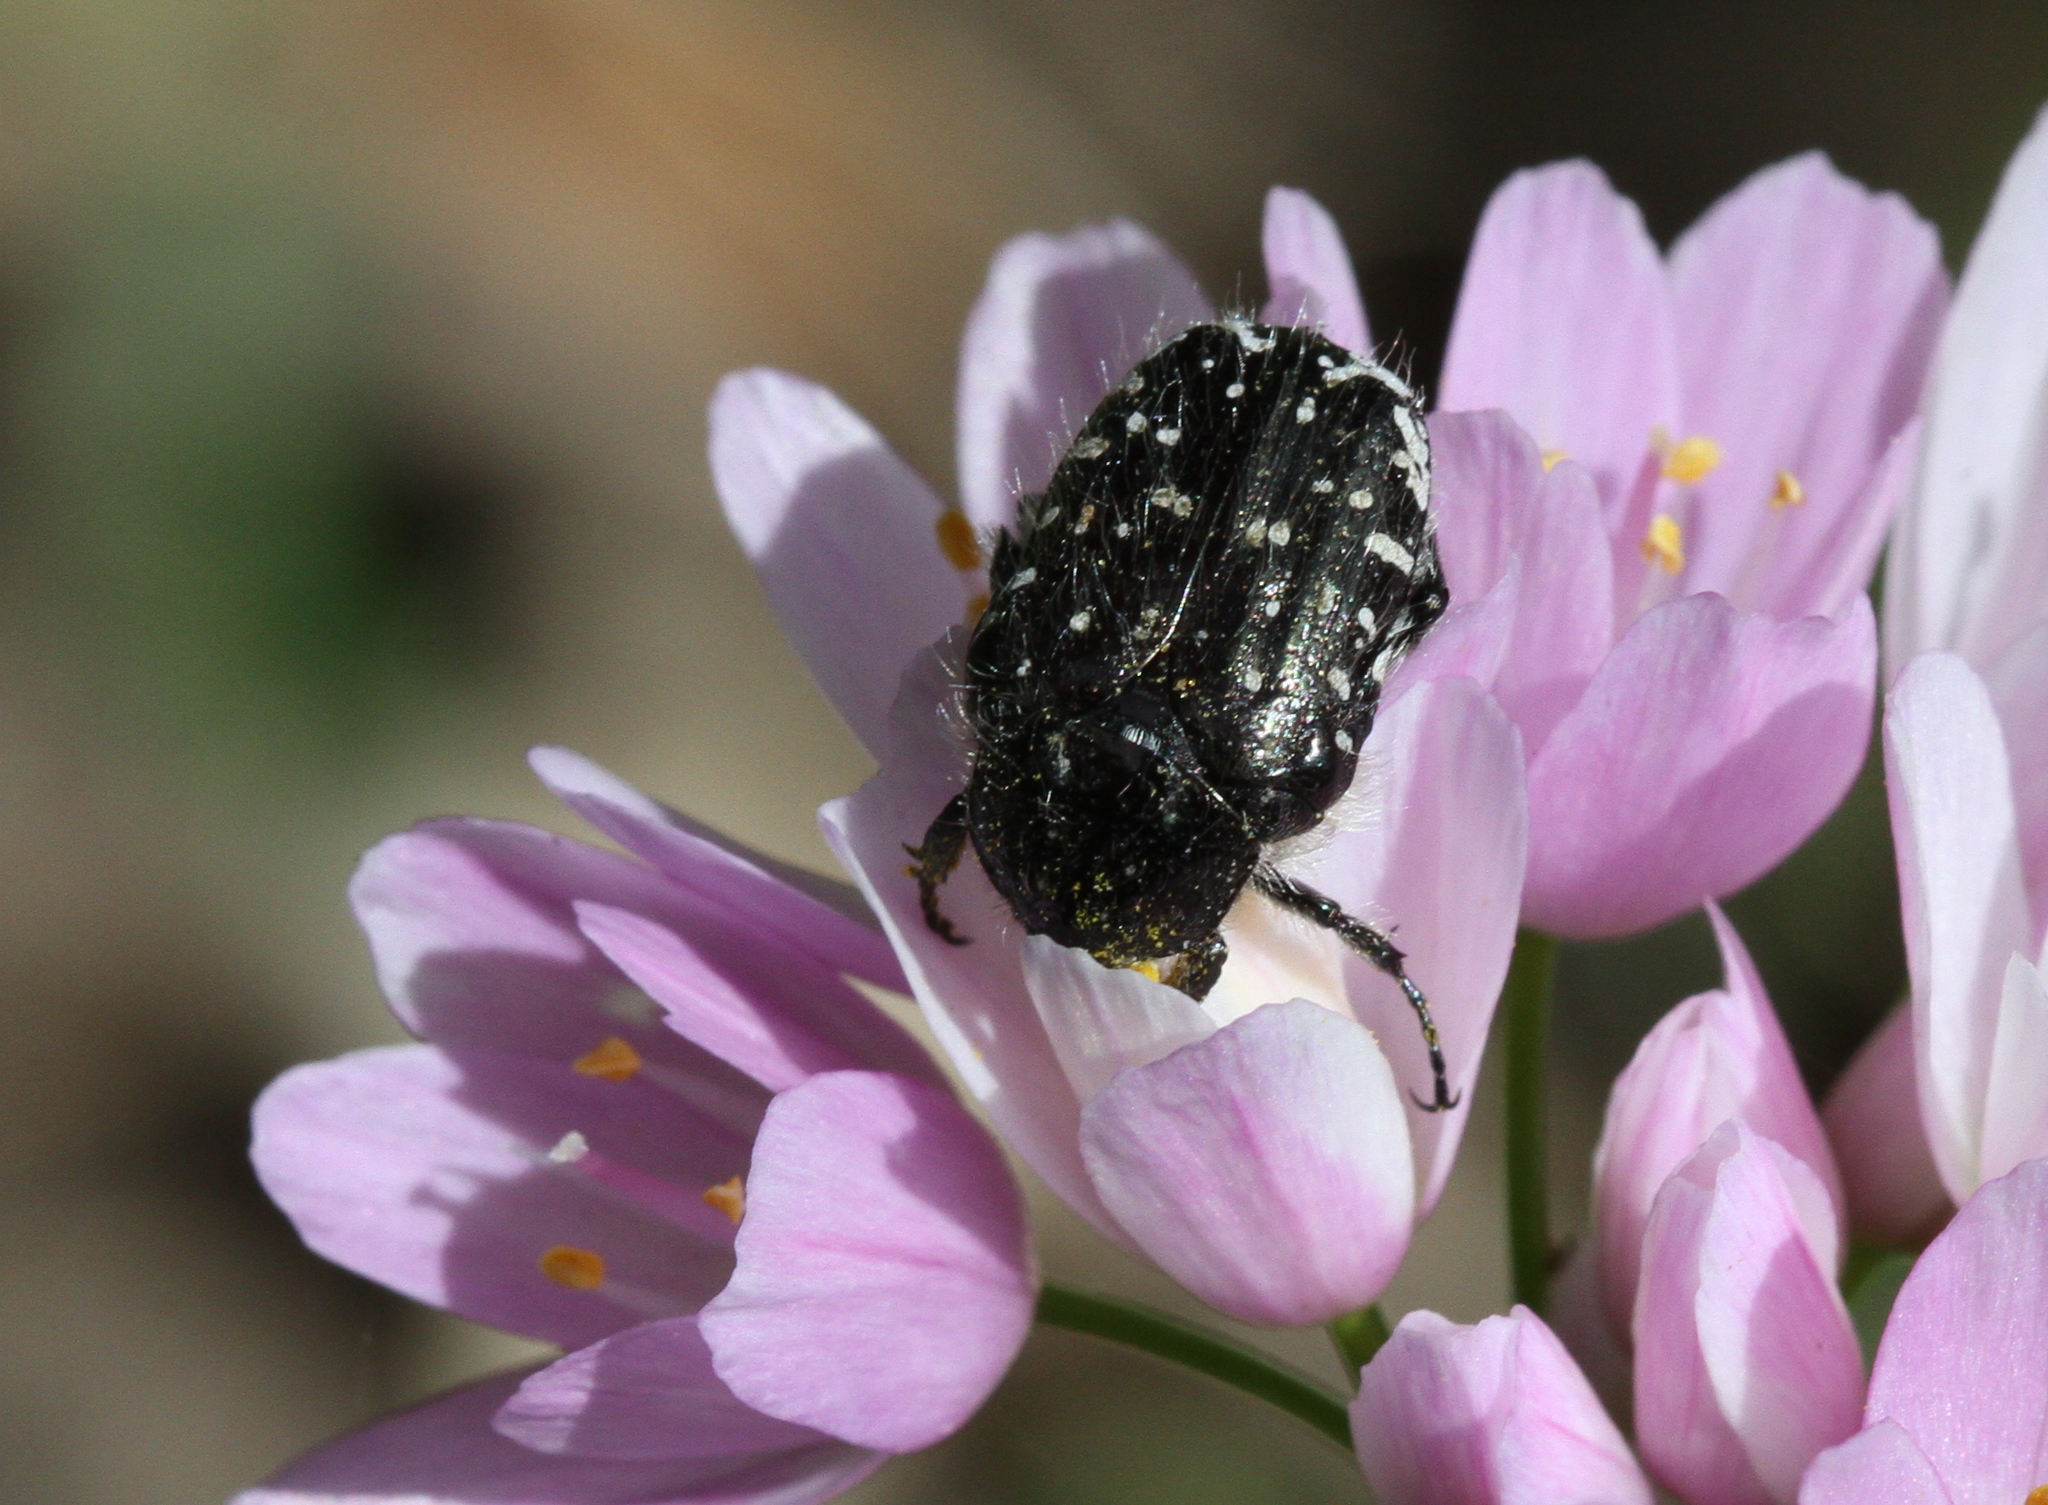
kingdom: Animalia
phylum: Arthropoda
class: Insecta
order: Coleoptera
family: Scarabaeidae
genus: Oxythyrea
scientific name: Oxythyrea funesta
